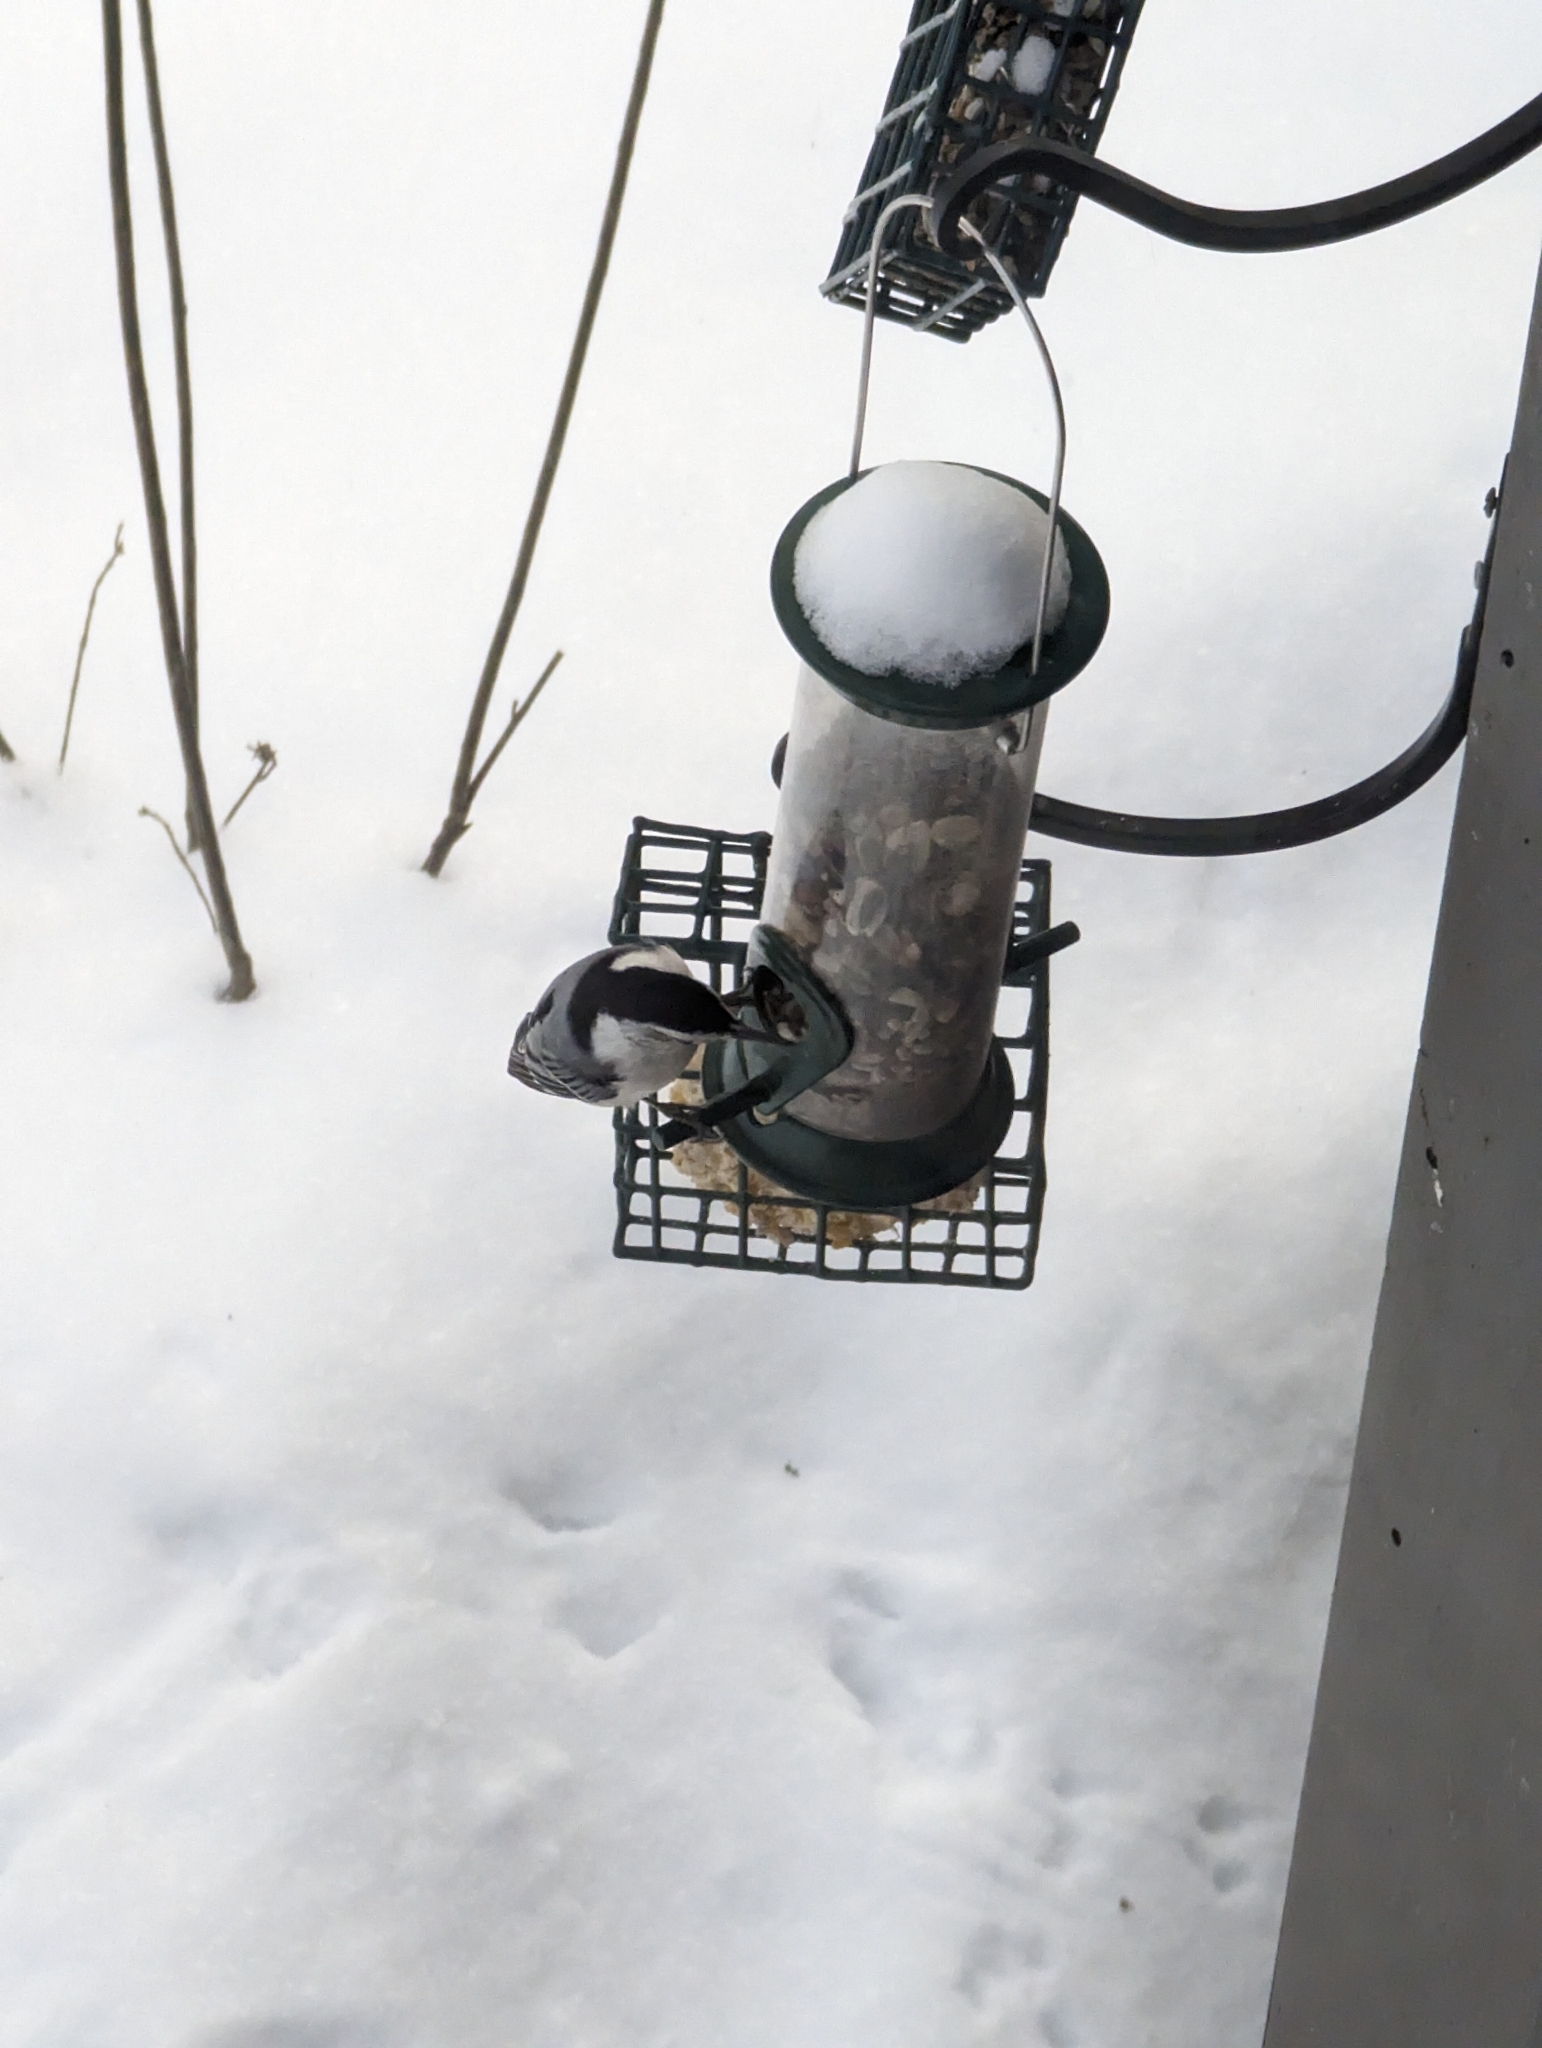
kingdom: Animalia
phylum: Chordata
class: Aves
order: Passeriformes
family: Sittidae
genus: Sitta
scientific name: Sitta carolinensis
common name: White-breasted nuthatch
